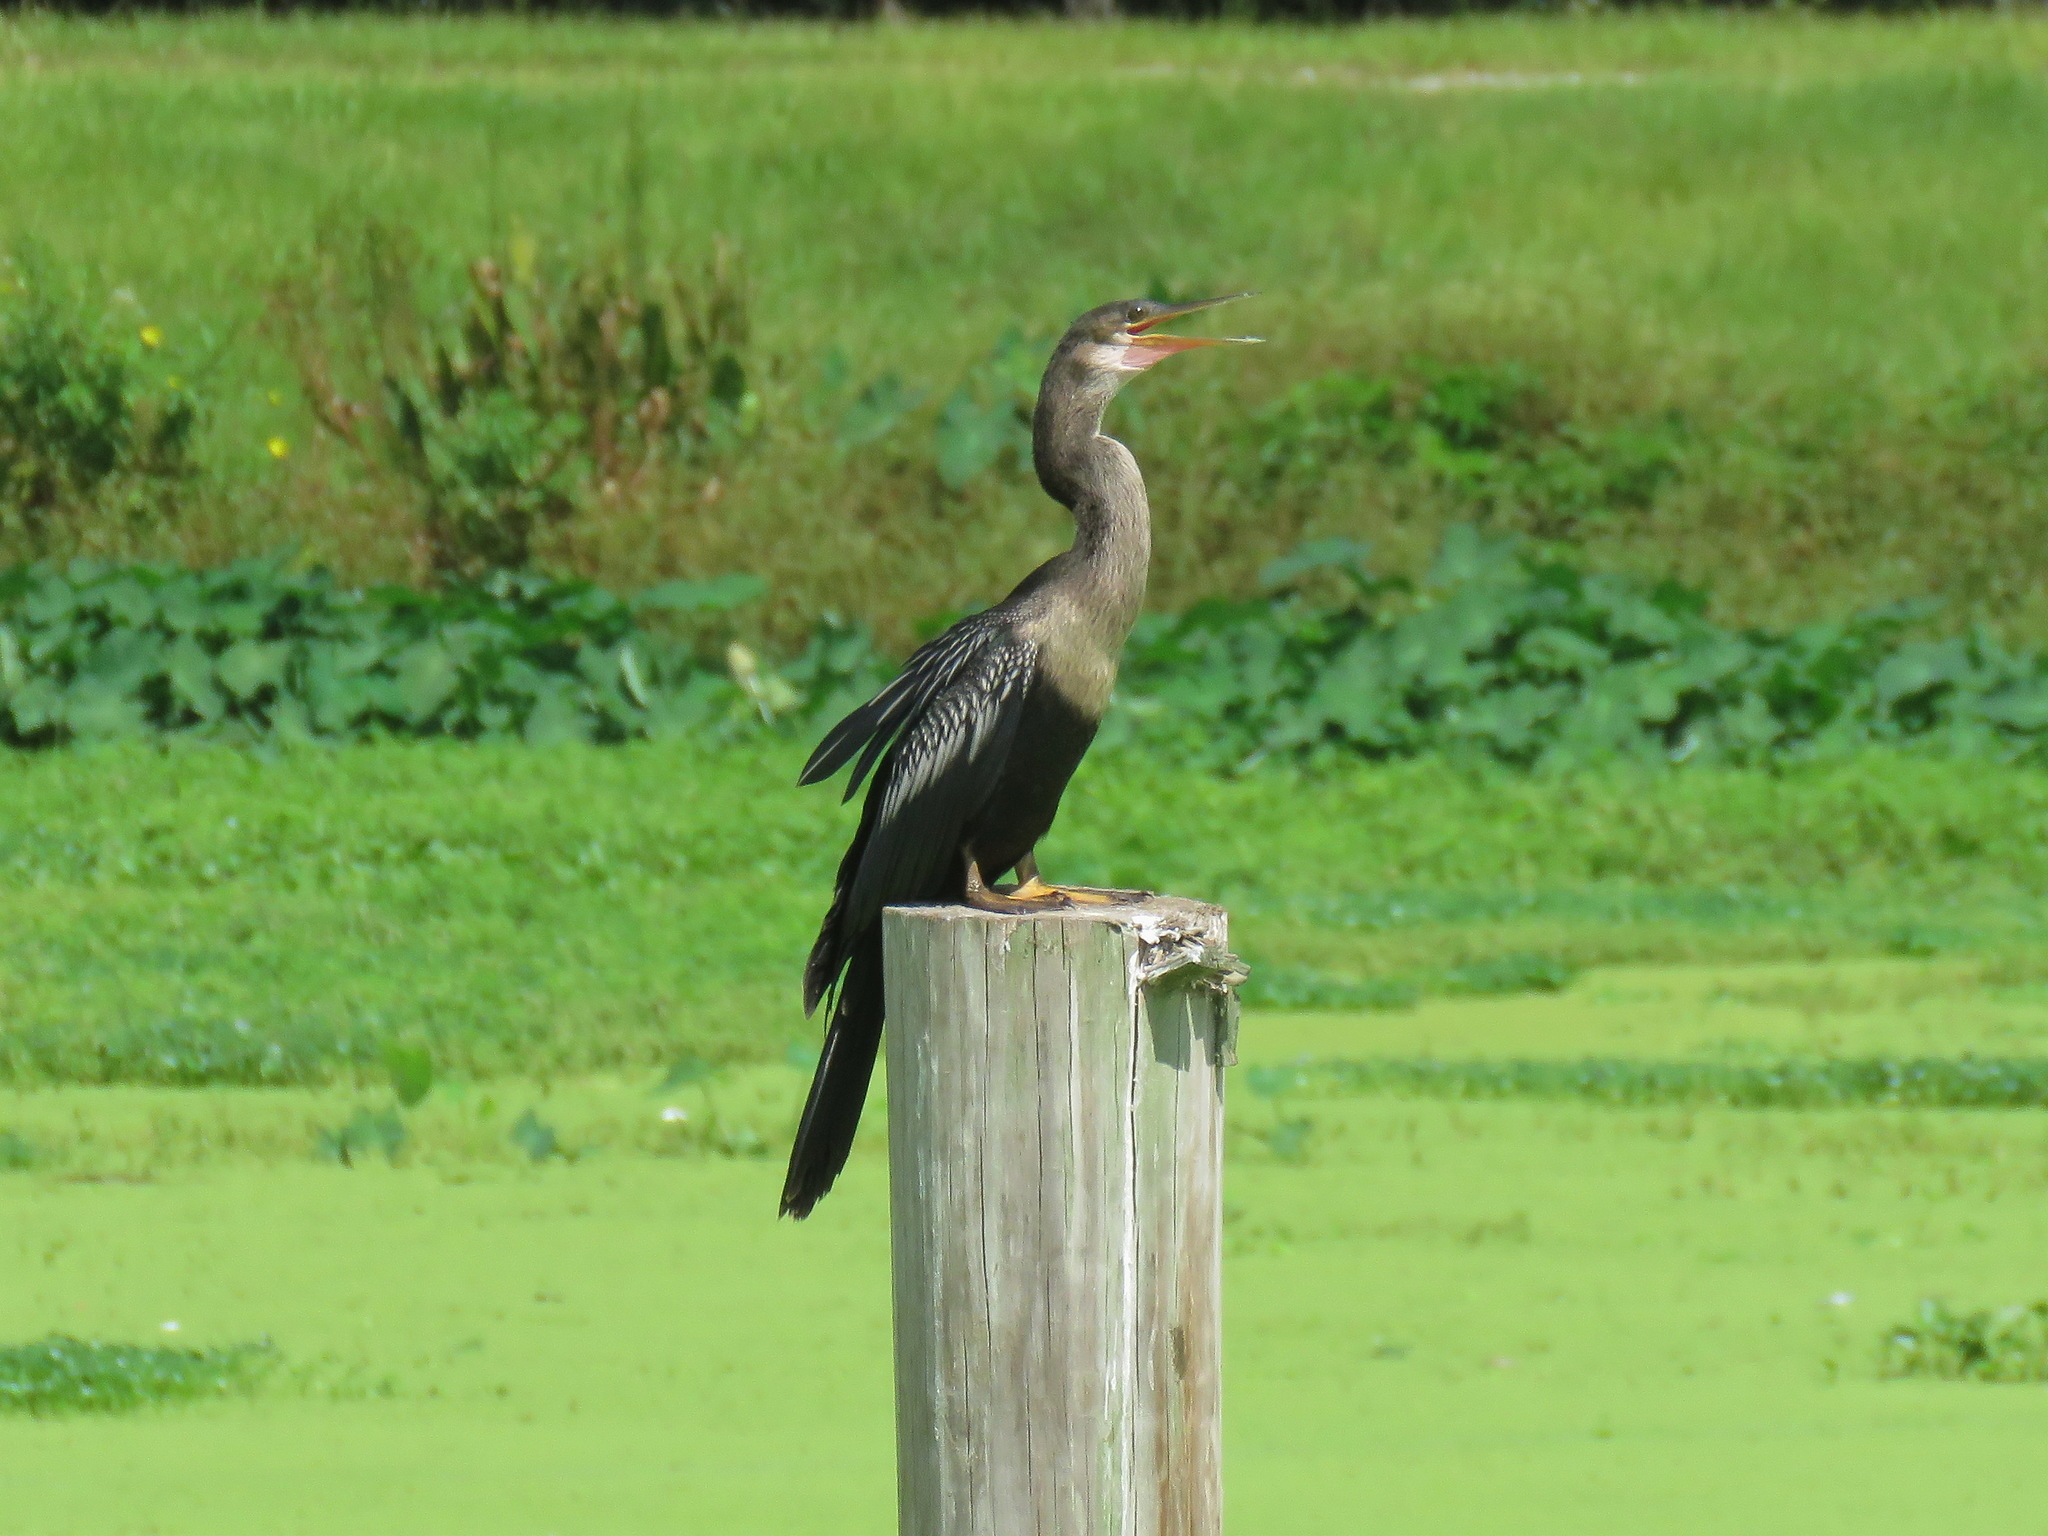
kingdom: Animalia
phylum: Chordata
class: Aves
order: Suliformes
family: Anhingidae
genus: Anhinga
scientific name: Anhinga anhinga
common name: Anhinga
